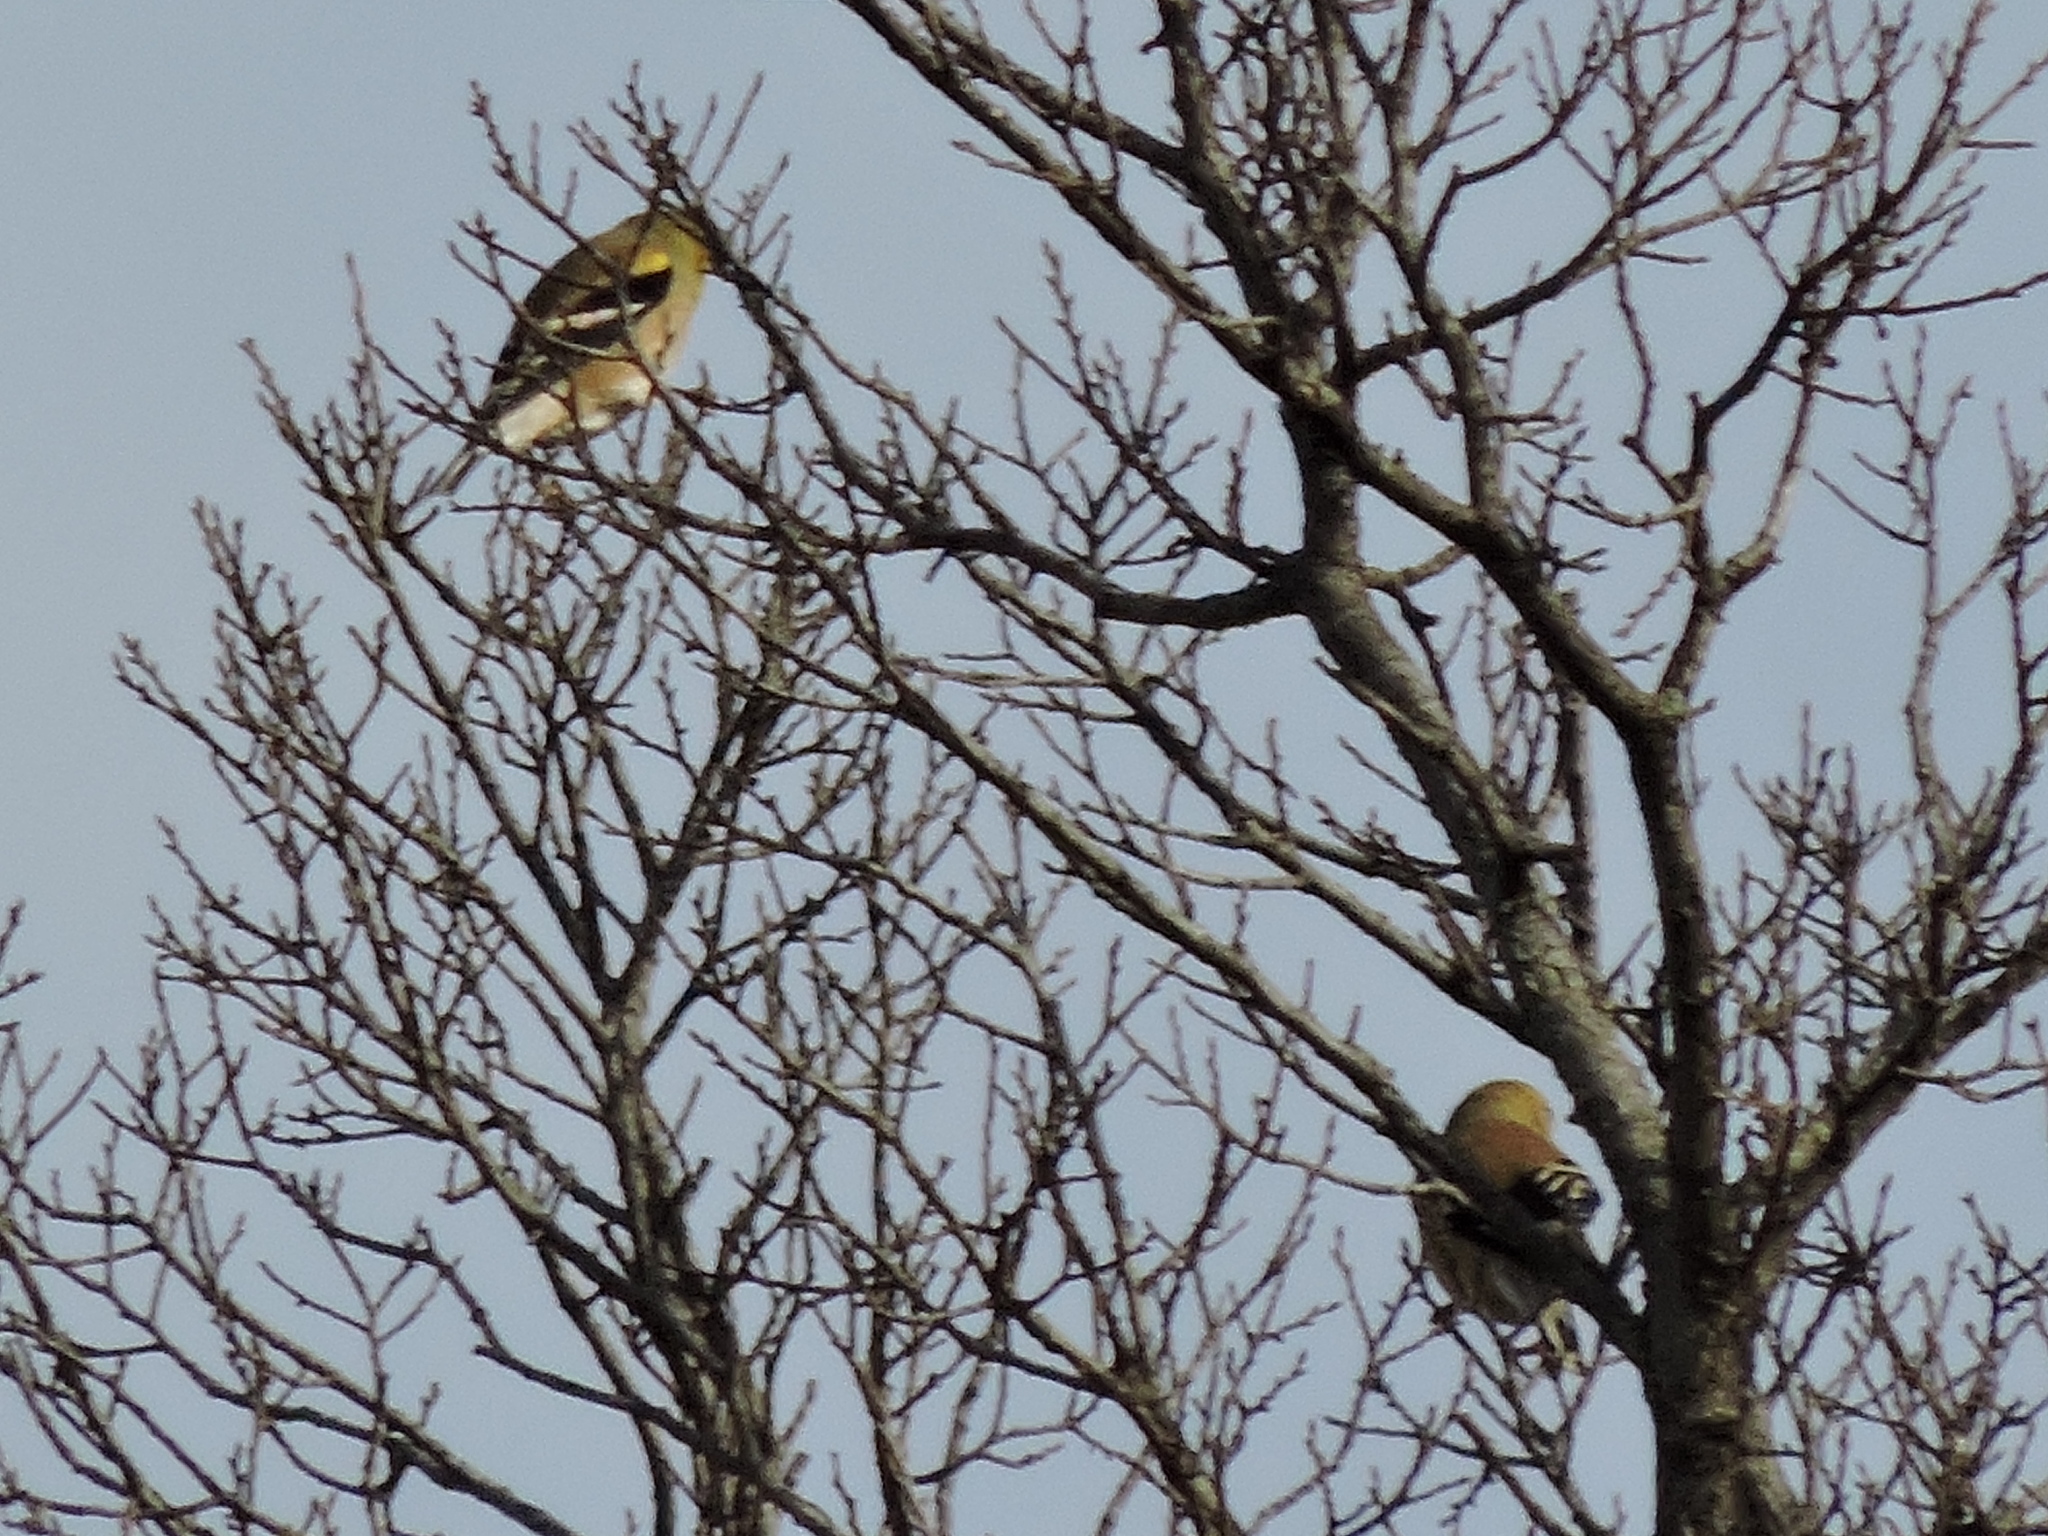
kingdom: Animalia
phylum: Chordata
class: Aves
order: Passeriformes
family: Fringillidae
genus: Spinus
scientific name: Spinus tristis
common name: American goldfinch
